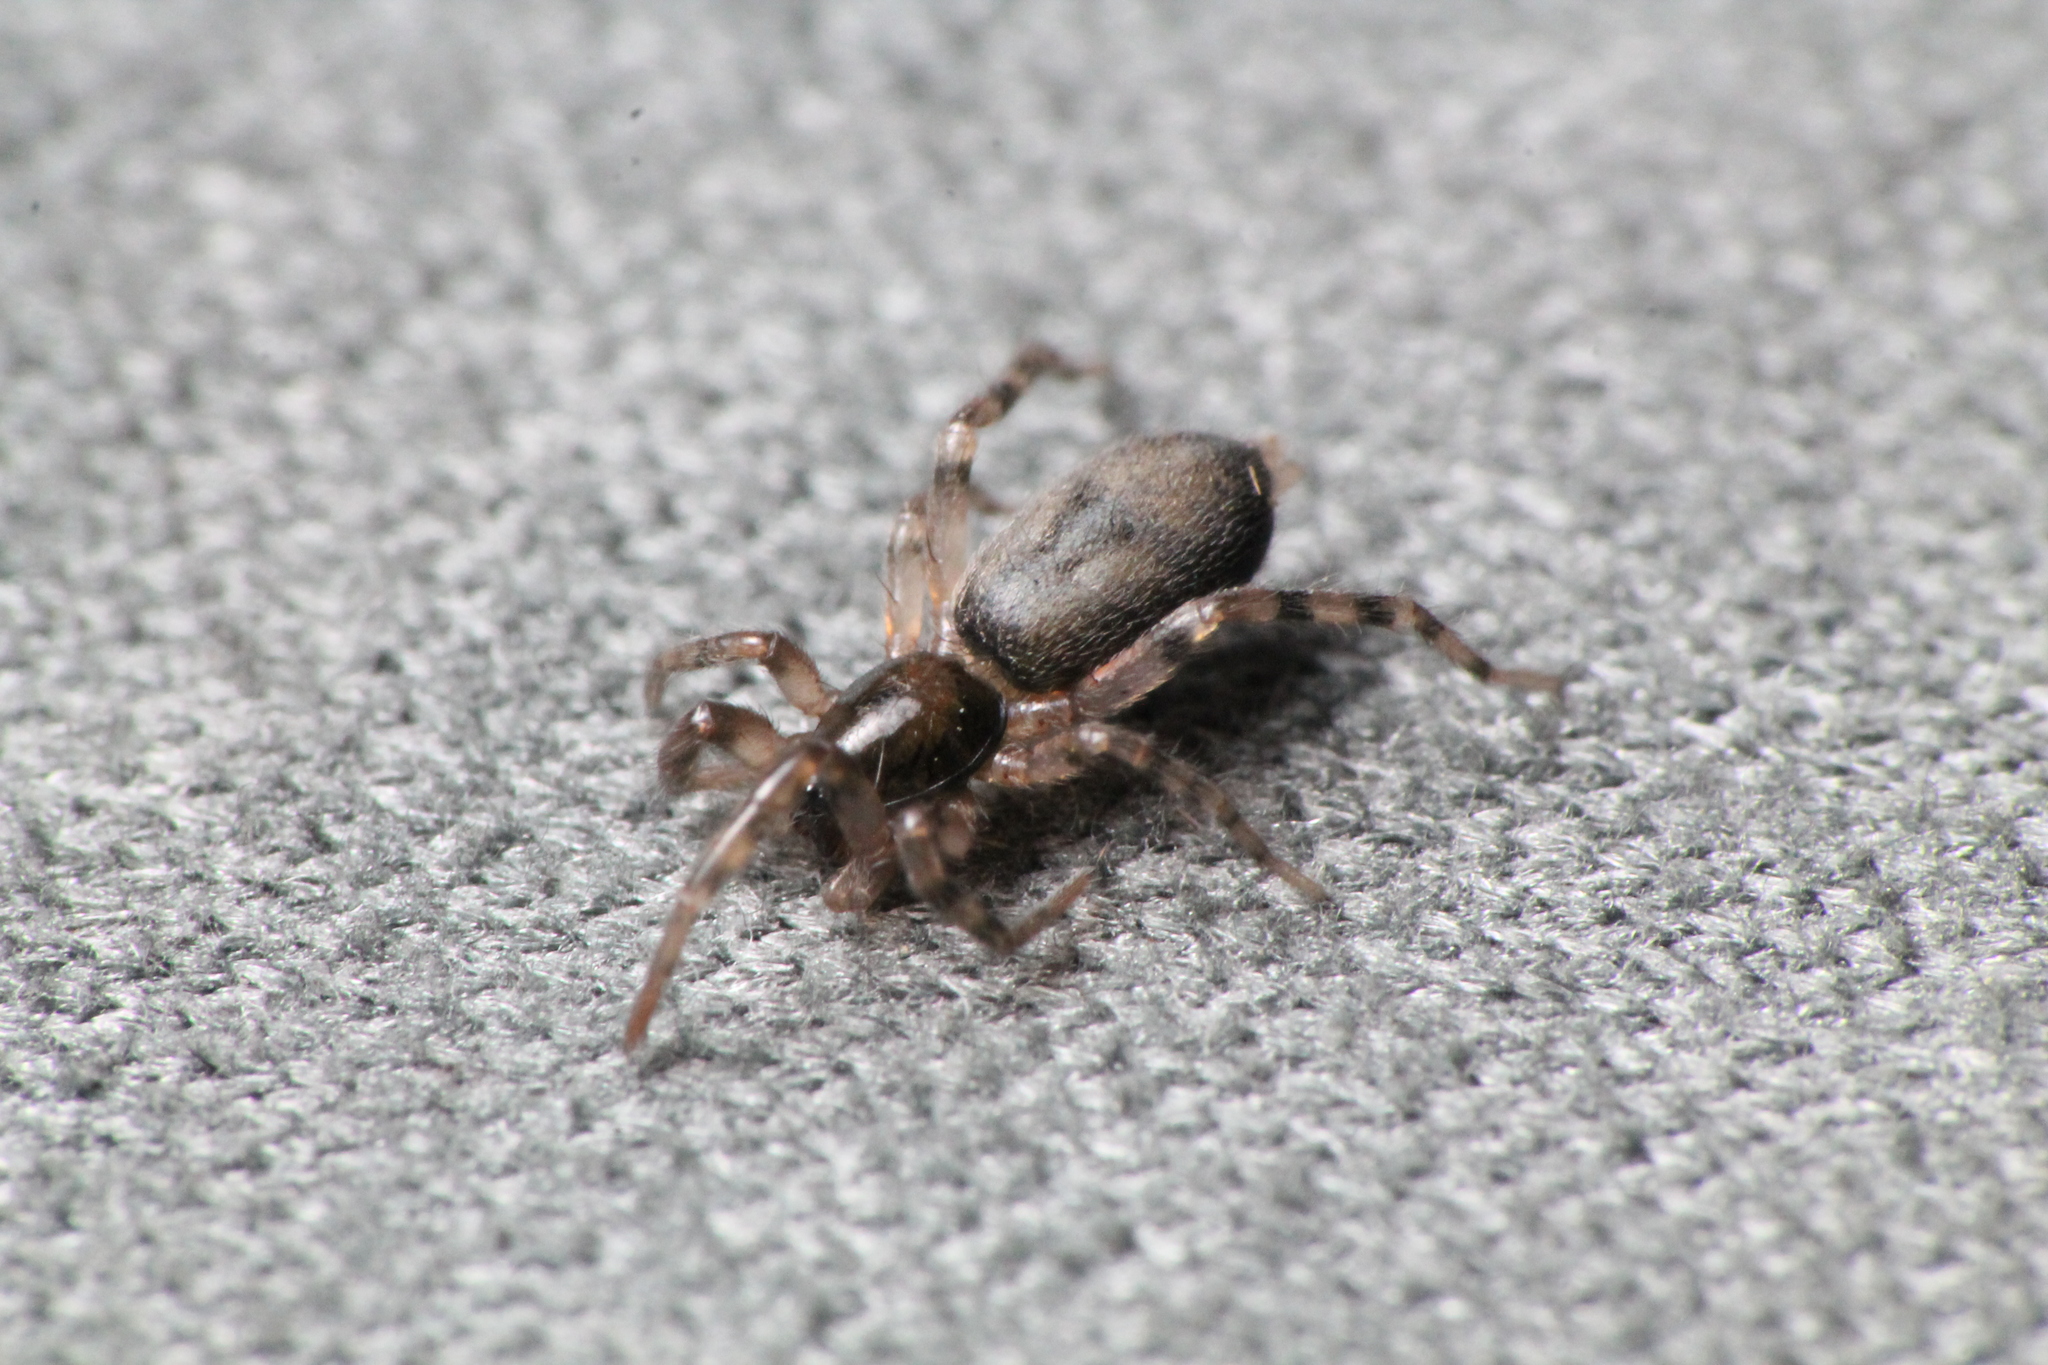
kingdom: Animalia
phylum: Arthropoda
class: Arachnida
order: Araneae
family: Gnaphosidae
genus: Intruda
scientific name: Intruda signata
